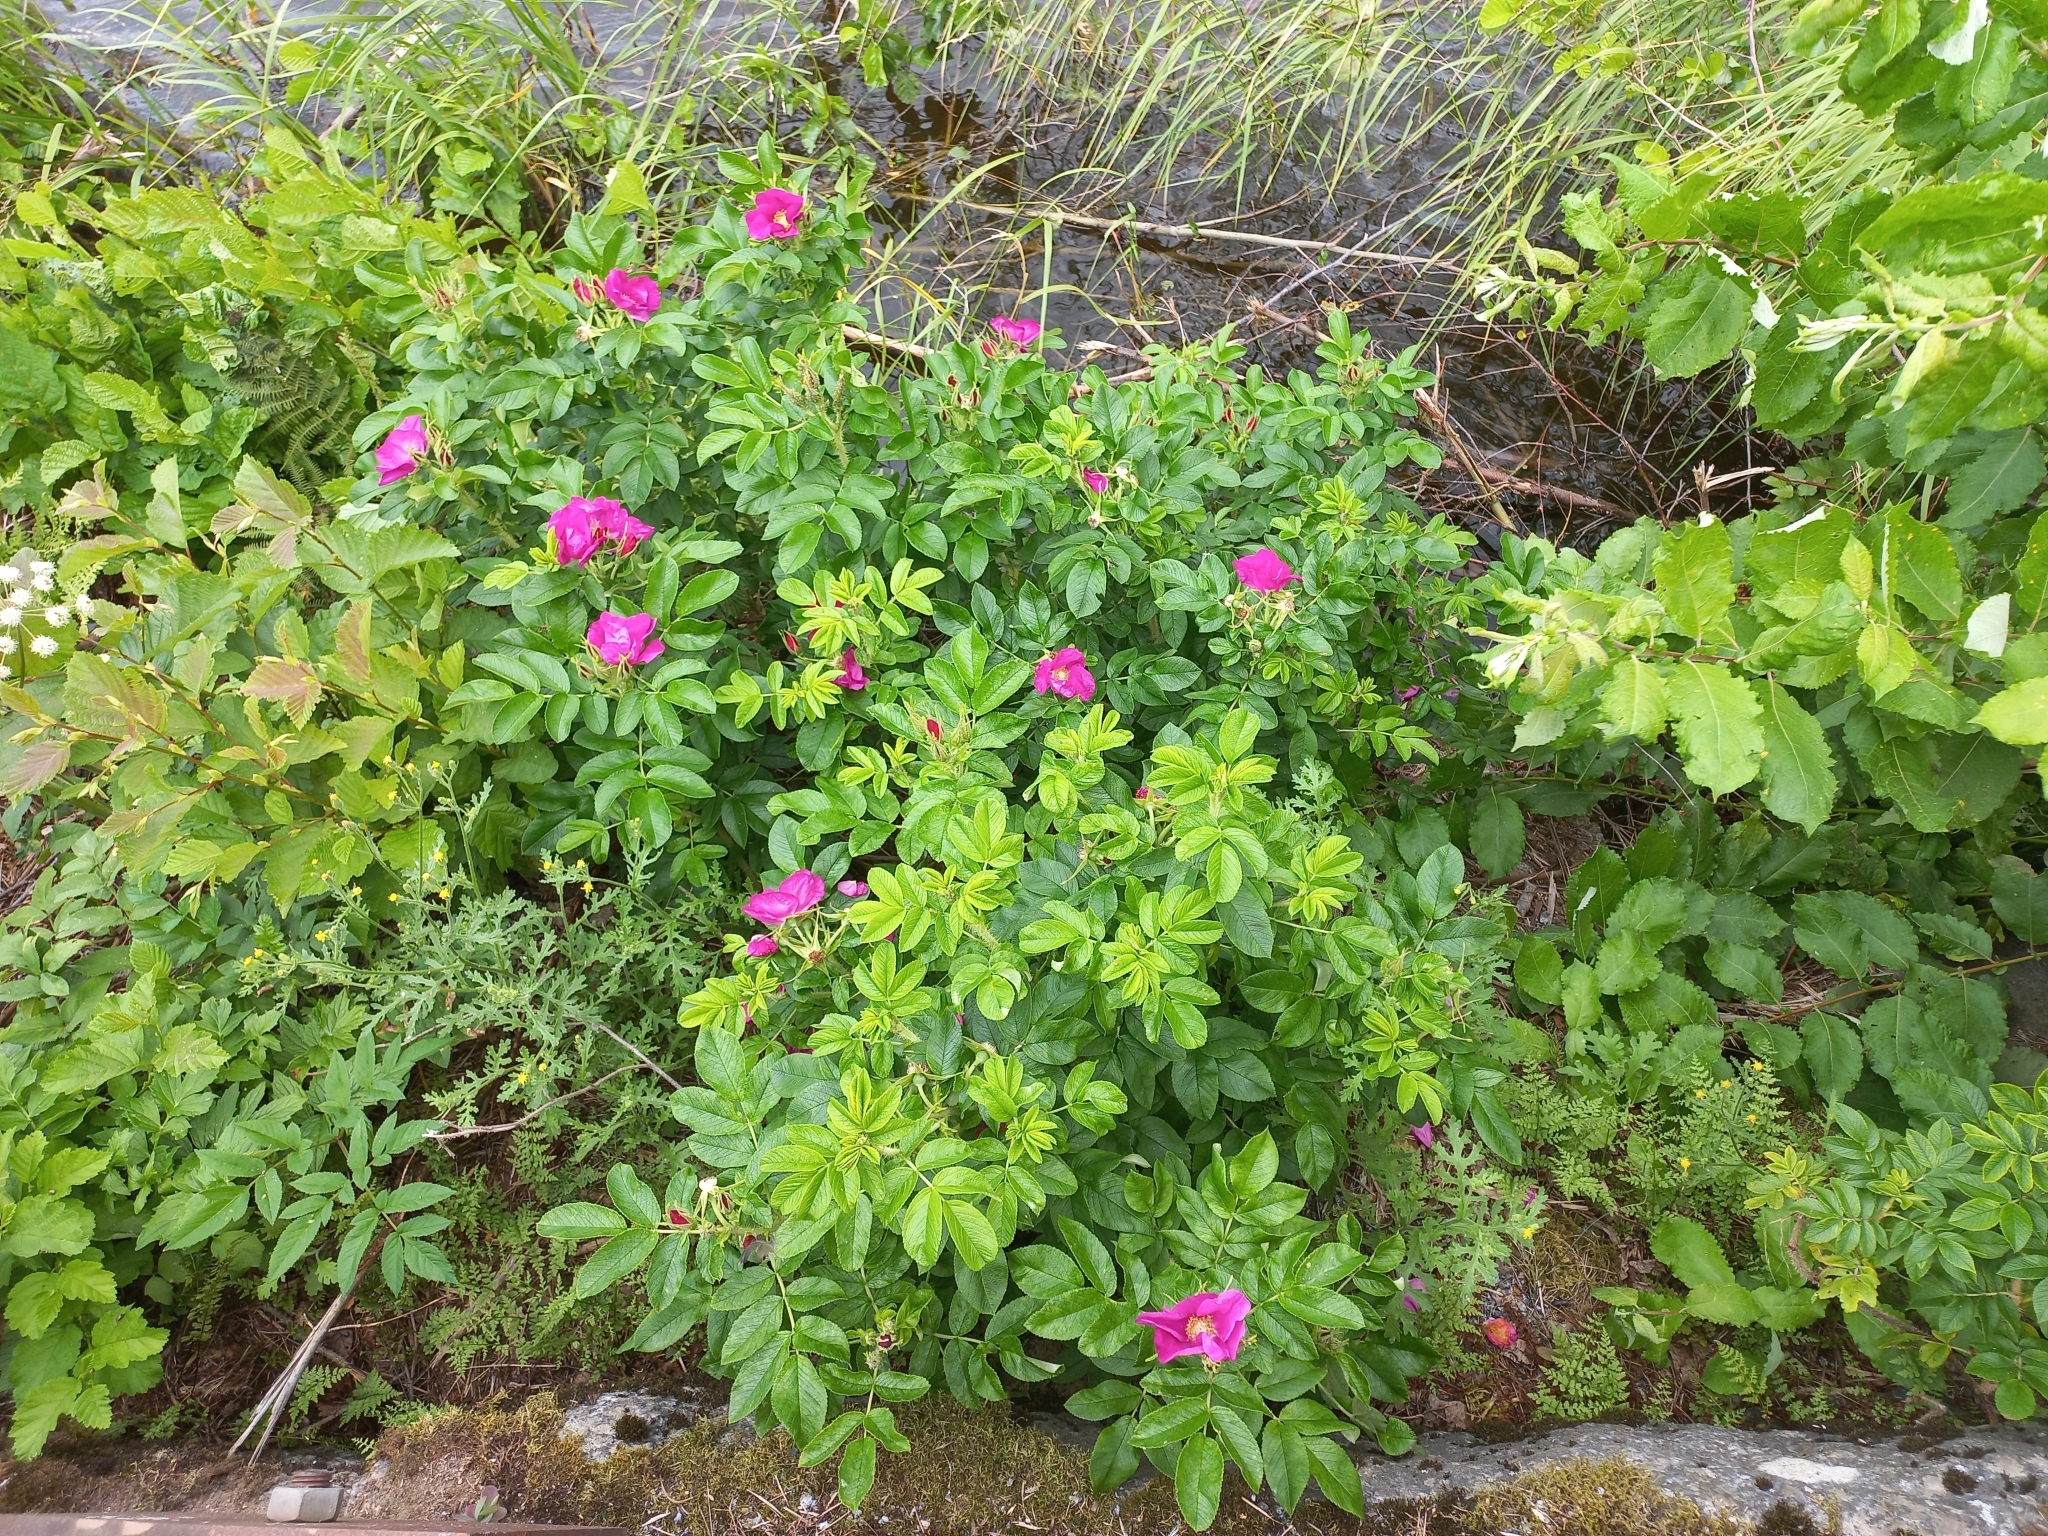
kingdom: Plantae
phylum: Tracheophyta
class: Magnoliopsida
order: Rosales
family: Rosaceae
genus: Rosa
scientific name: Rosa rugosa
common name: Japanese rose
